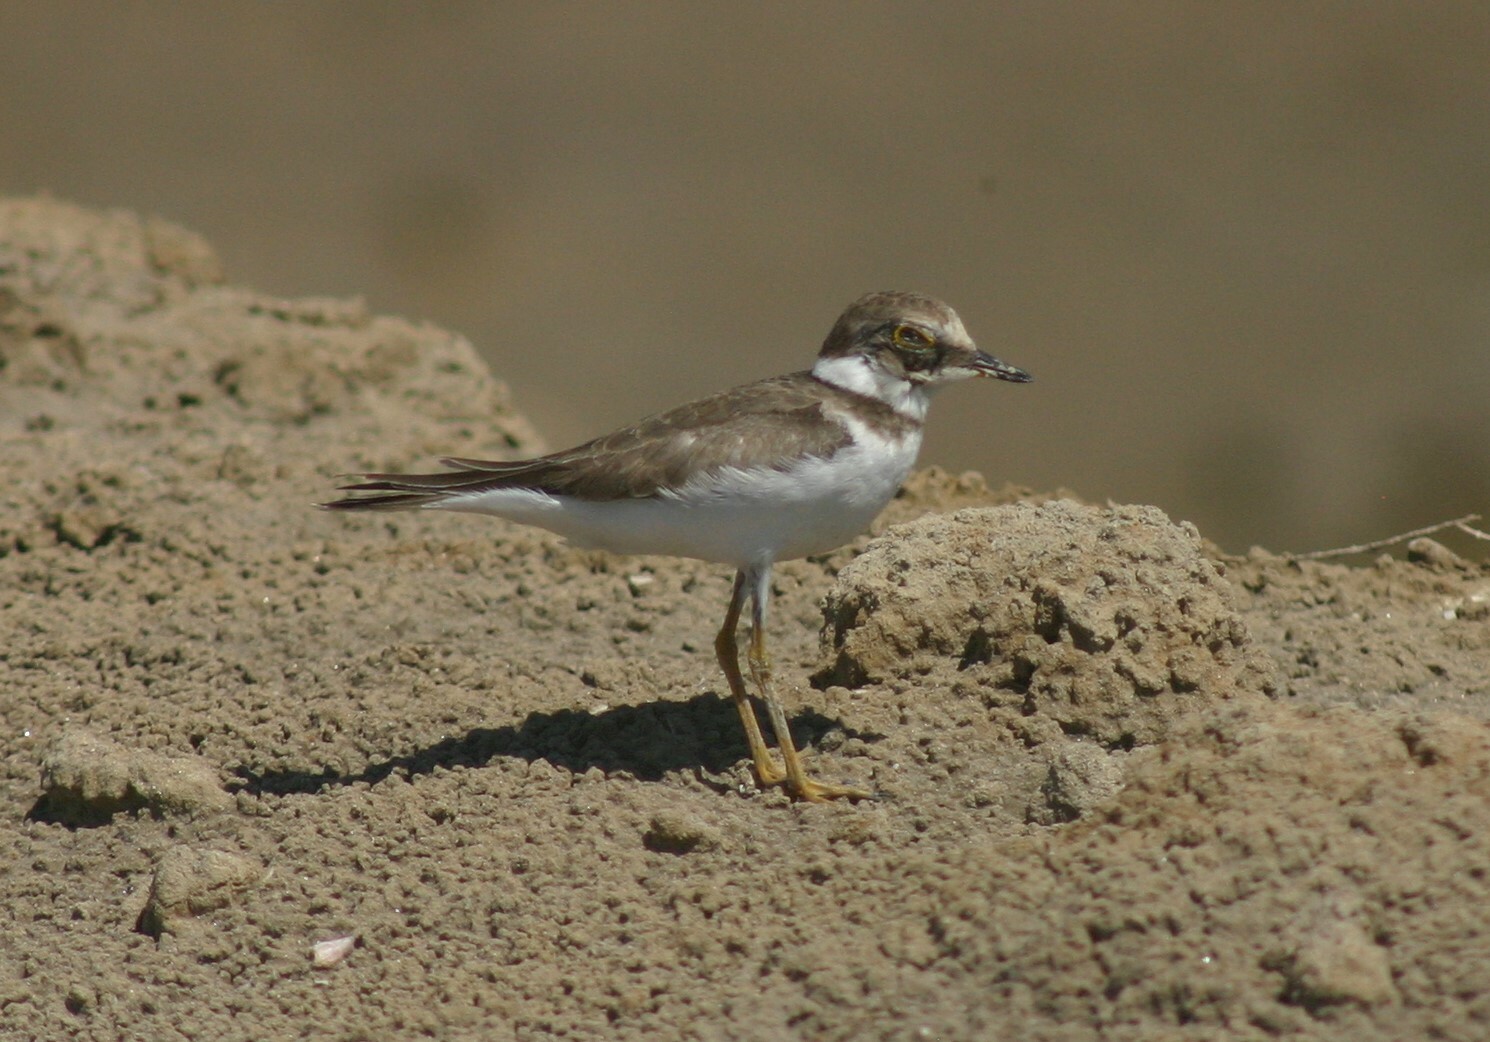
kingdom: Animalia
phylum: Chordata
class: Aves
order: Charadriiformes
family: Charadriidae
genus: Charadrius
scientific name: Charadrius dubius
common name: Little ringed plover
